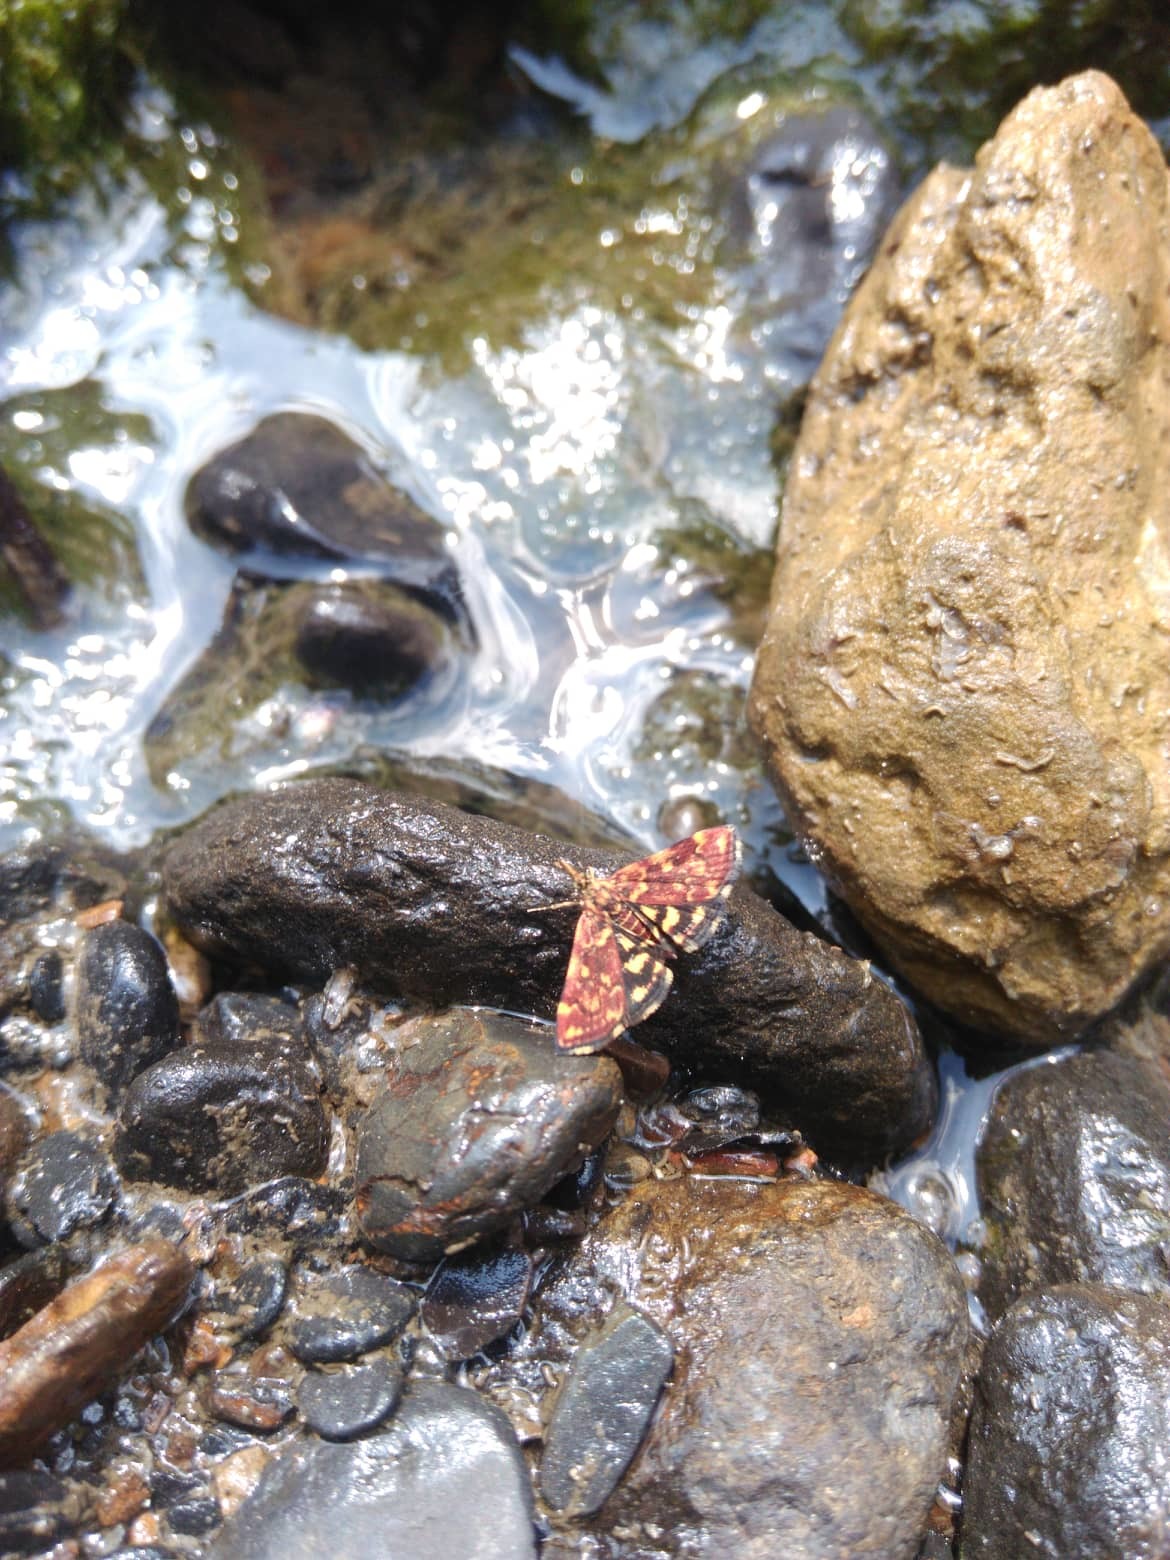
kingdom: Animalia
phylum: Arthropoda
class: Insecta
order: Lepidoptera
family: Crambidae
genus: Pyrausta
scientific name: Pyrausta trizonalis
